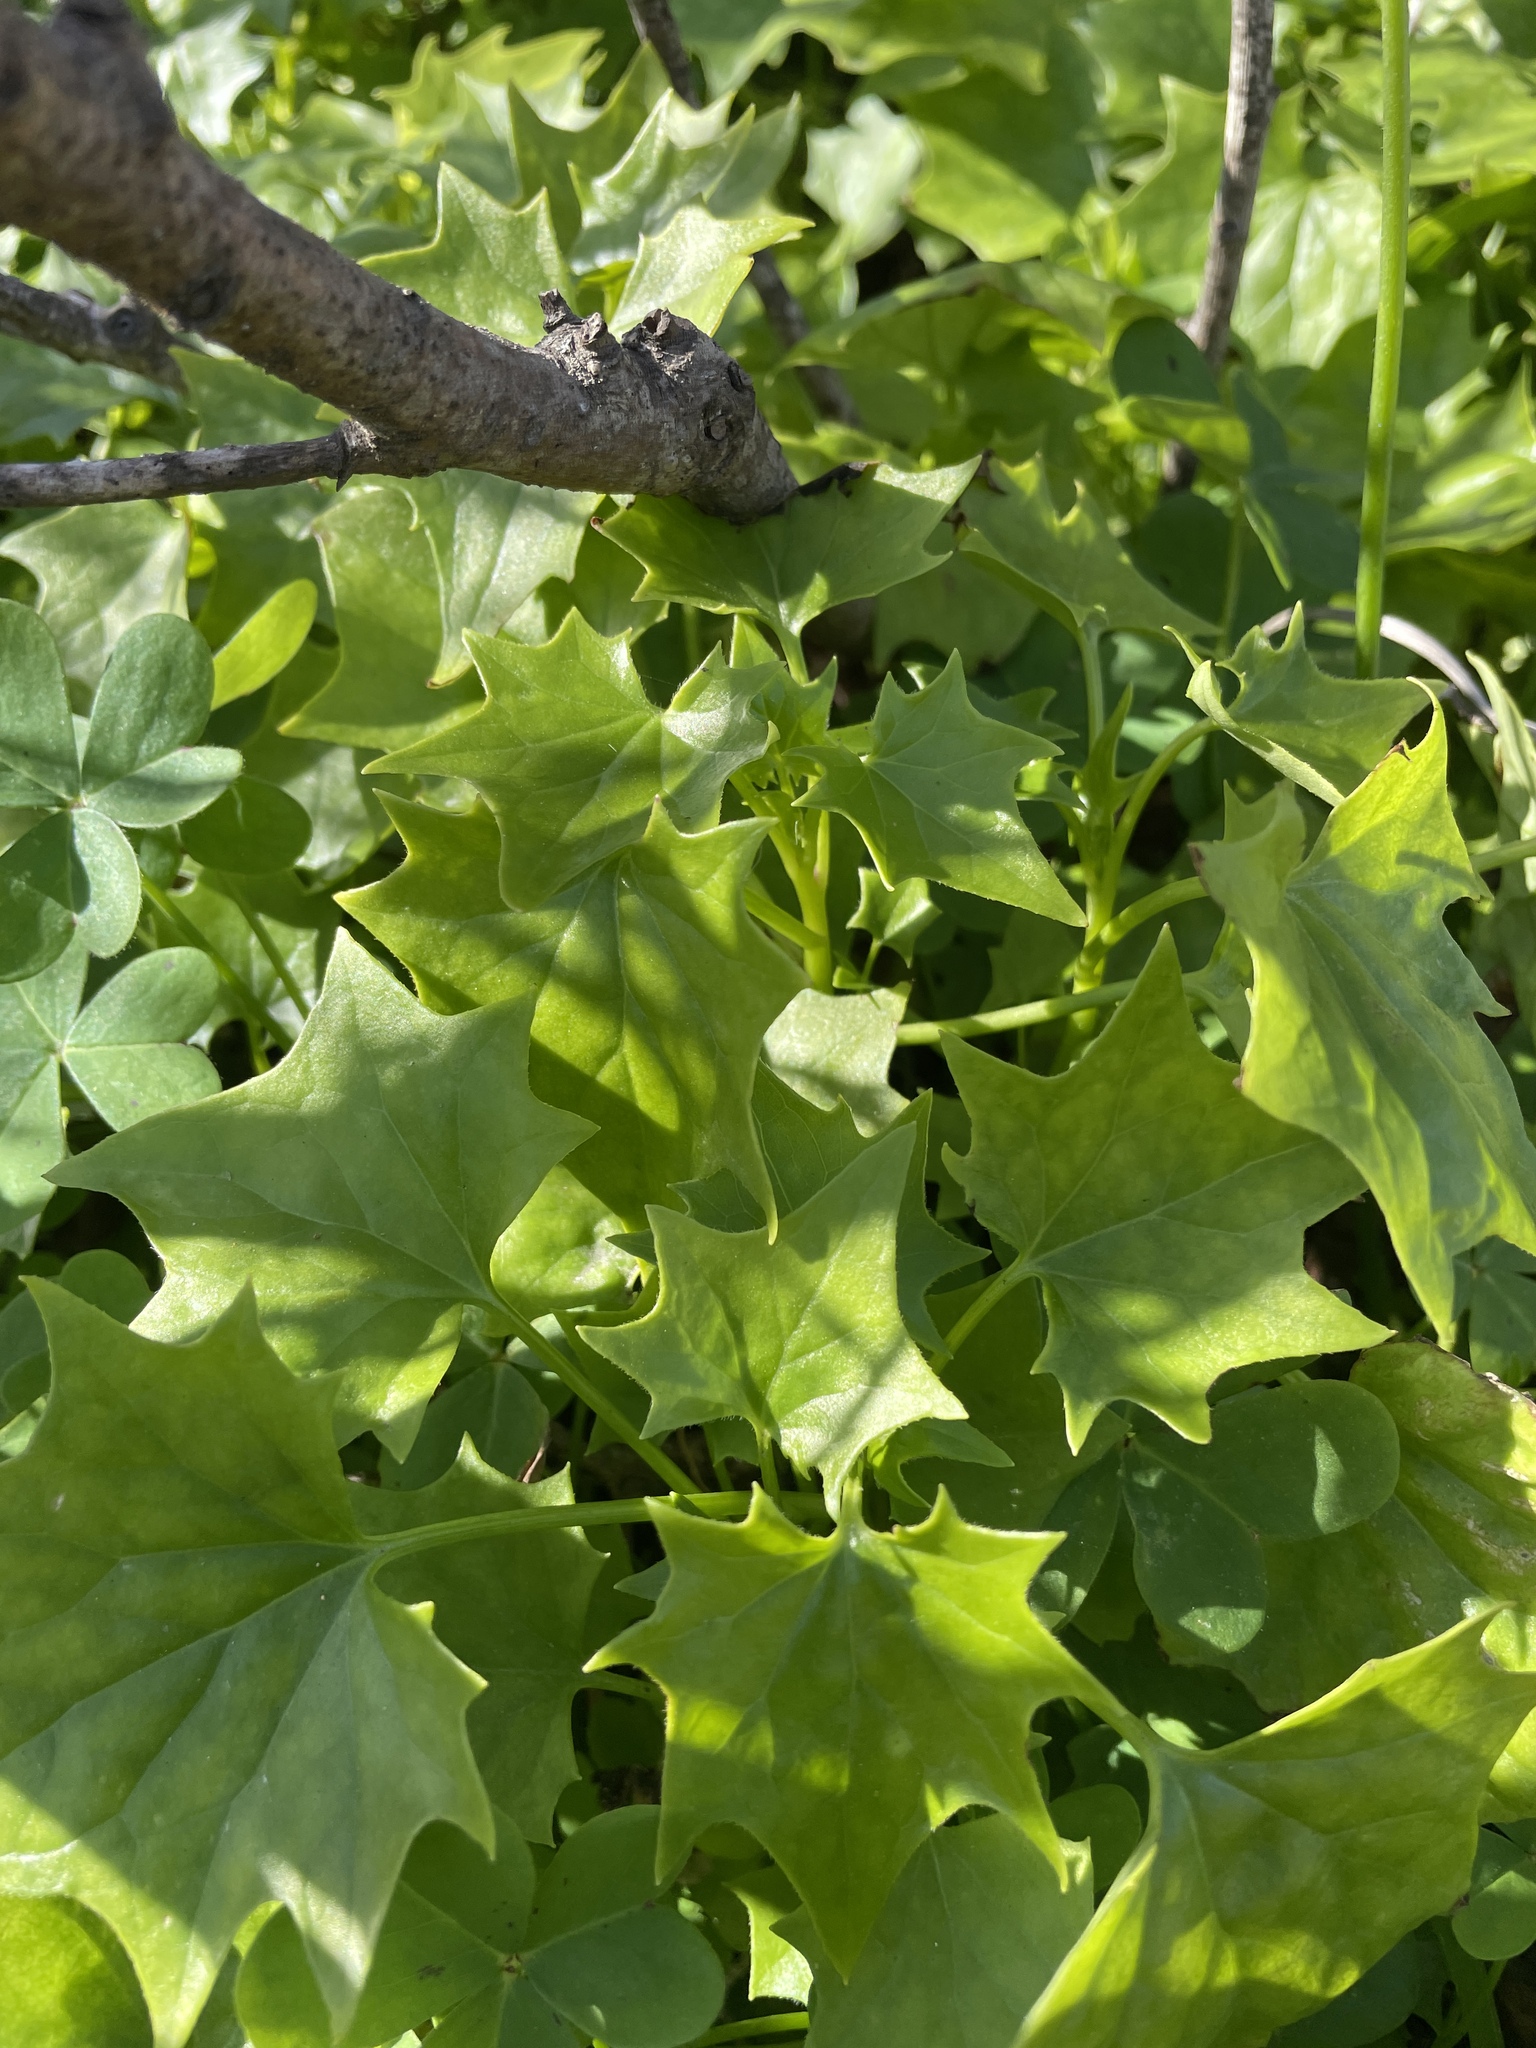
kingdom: Plantae
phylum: Tracheophyta
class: Magnoliopsida
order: Asterales
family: Asteraceae
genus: Delairea
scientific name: Delairea odorata
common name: Cape-ivy
